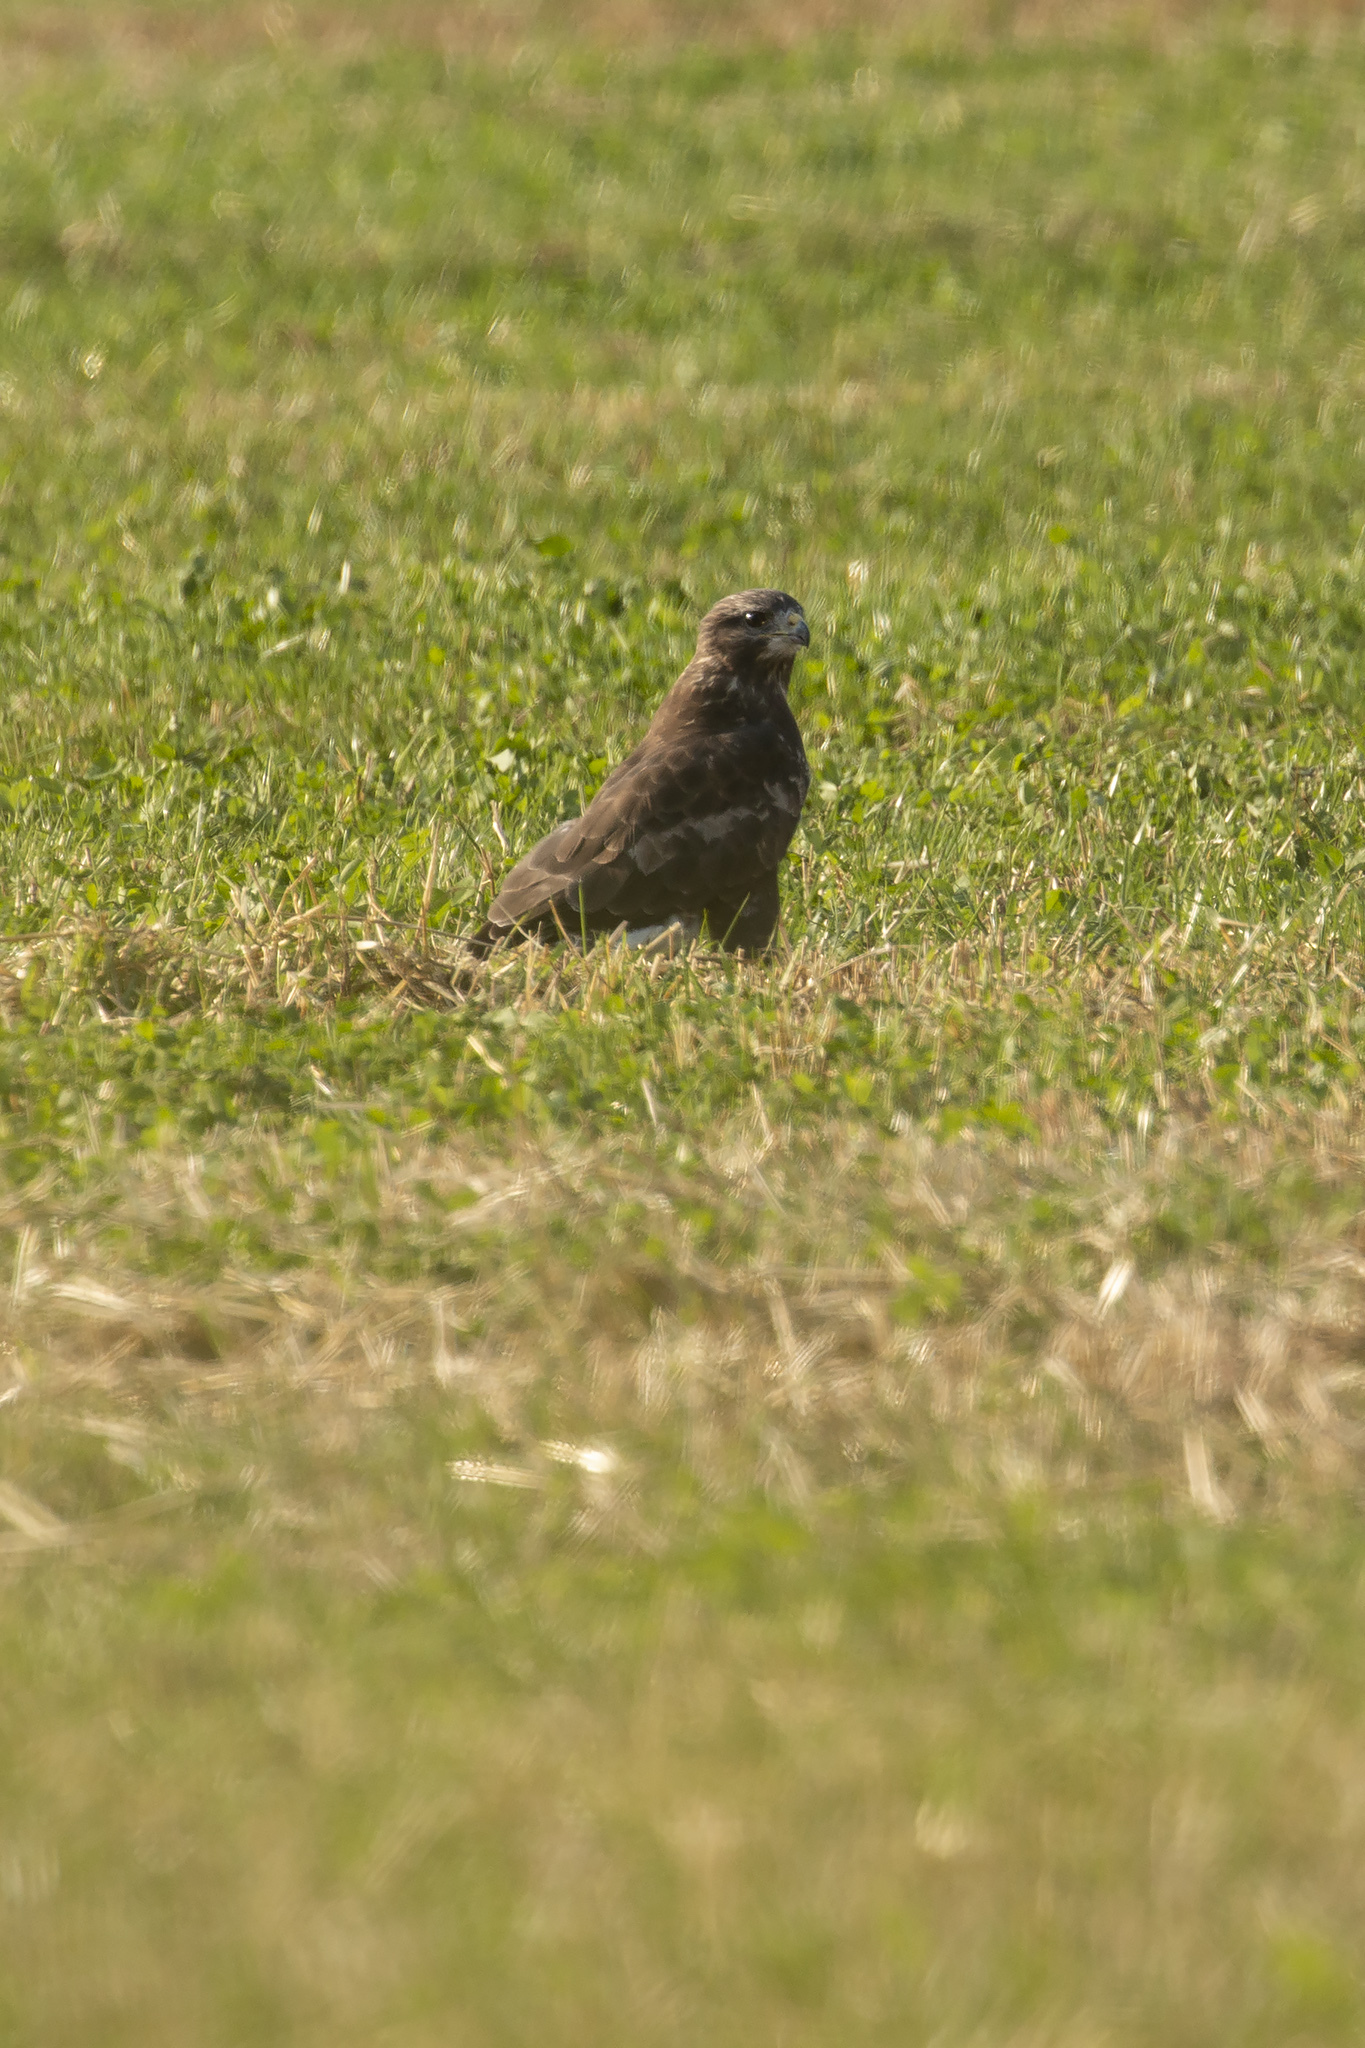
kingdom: Animalia
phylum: Chordata
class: Aves
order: Accipitriformes
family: Accipitridae
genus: Buteo
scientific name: Buteo buteo
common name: Common buzzard
